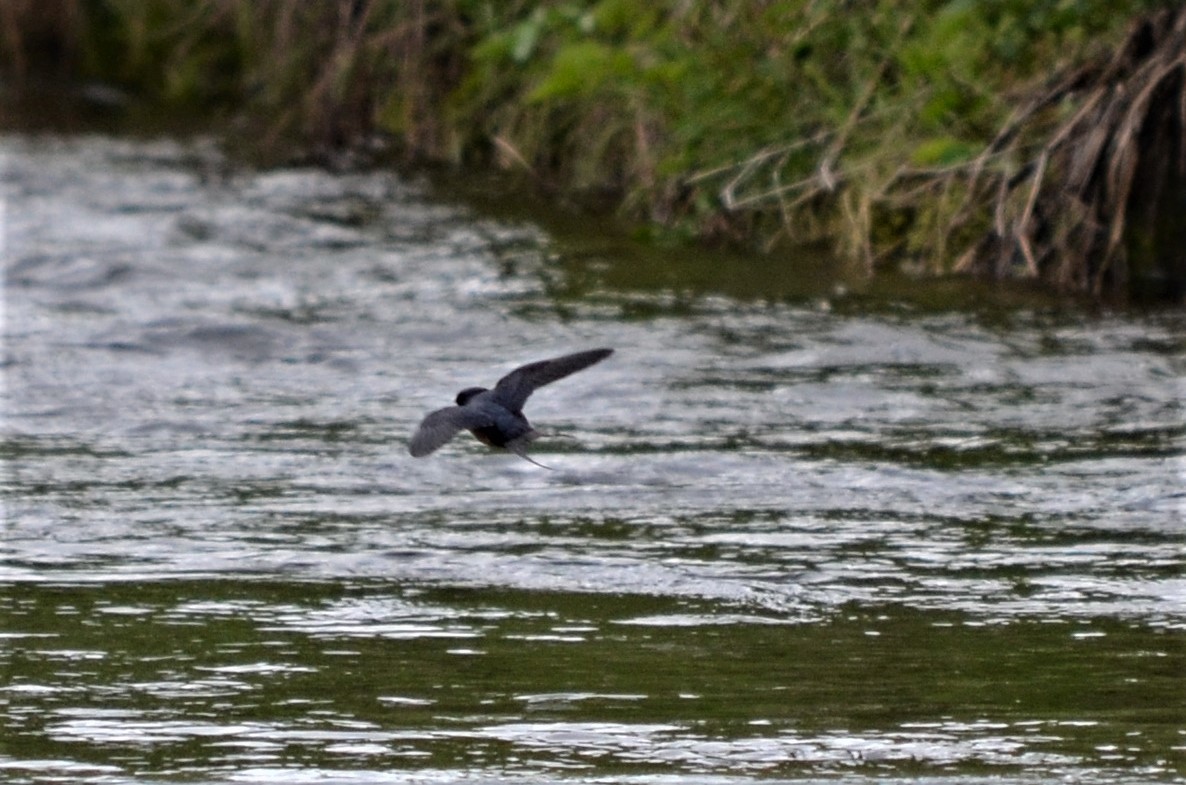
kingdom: Animalia
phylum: Chordata
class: Aves
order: Passeriformes
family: Hirundinidae
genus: Hirundo
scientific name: Hirundo rustica
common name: Barn swallow
